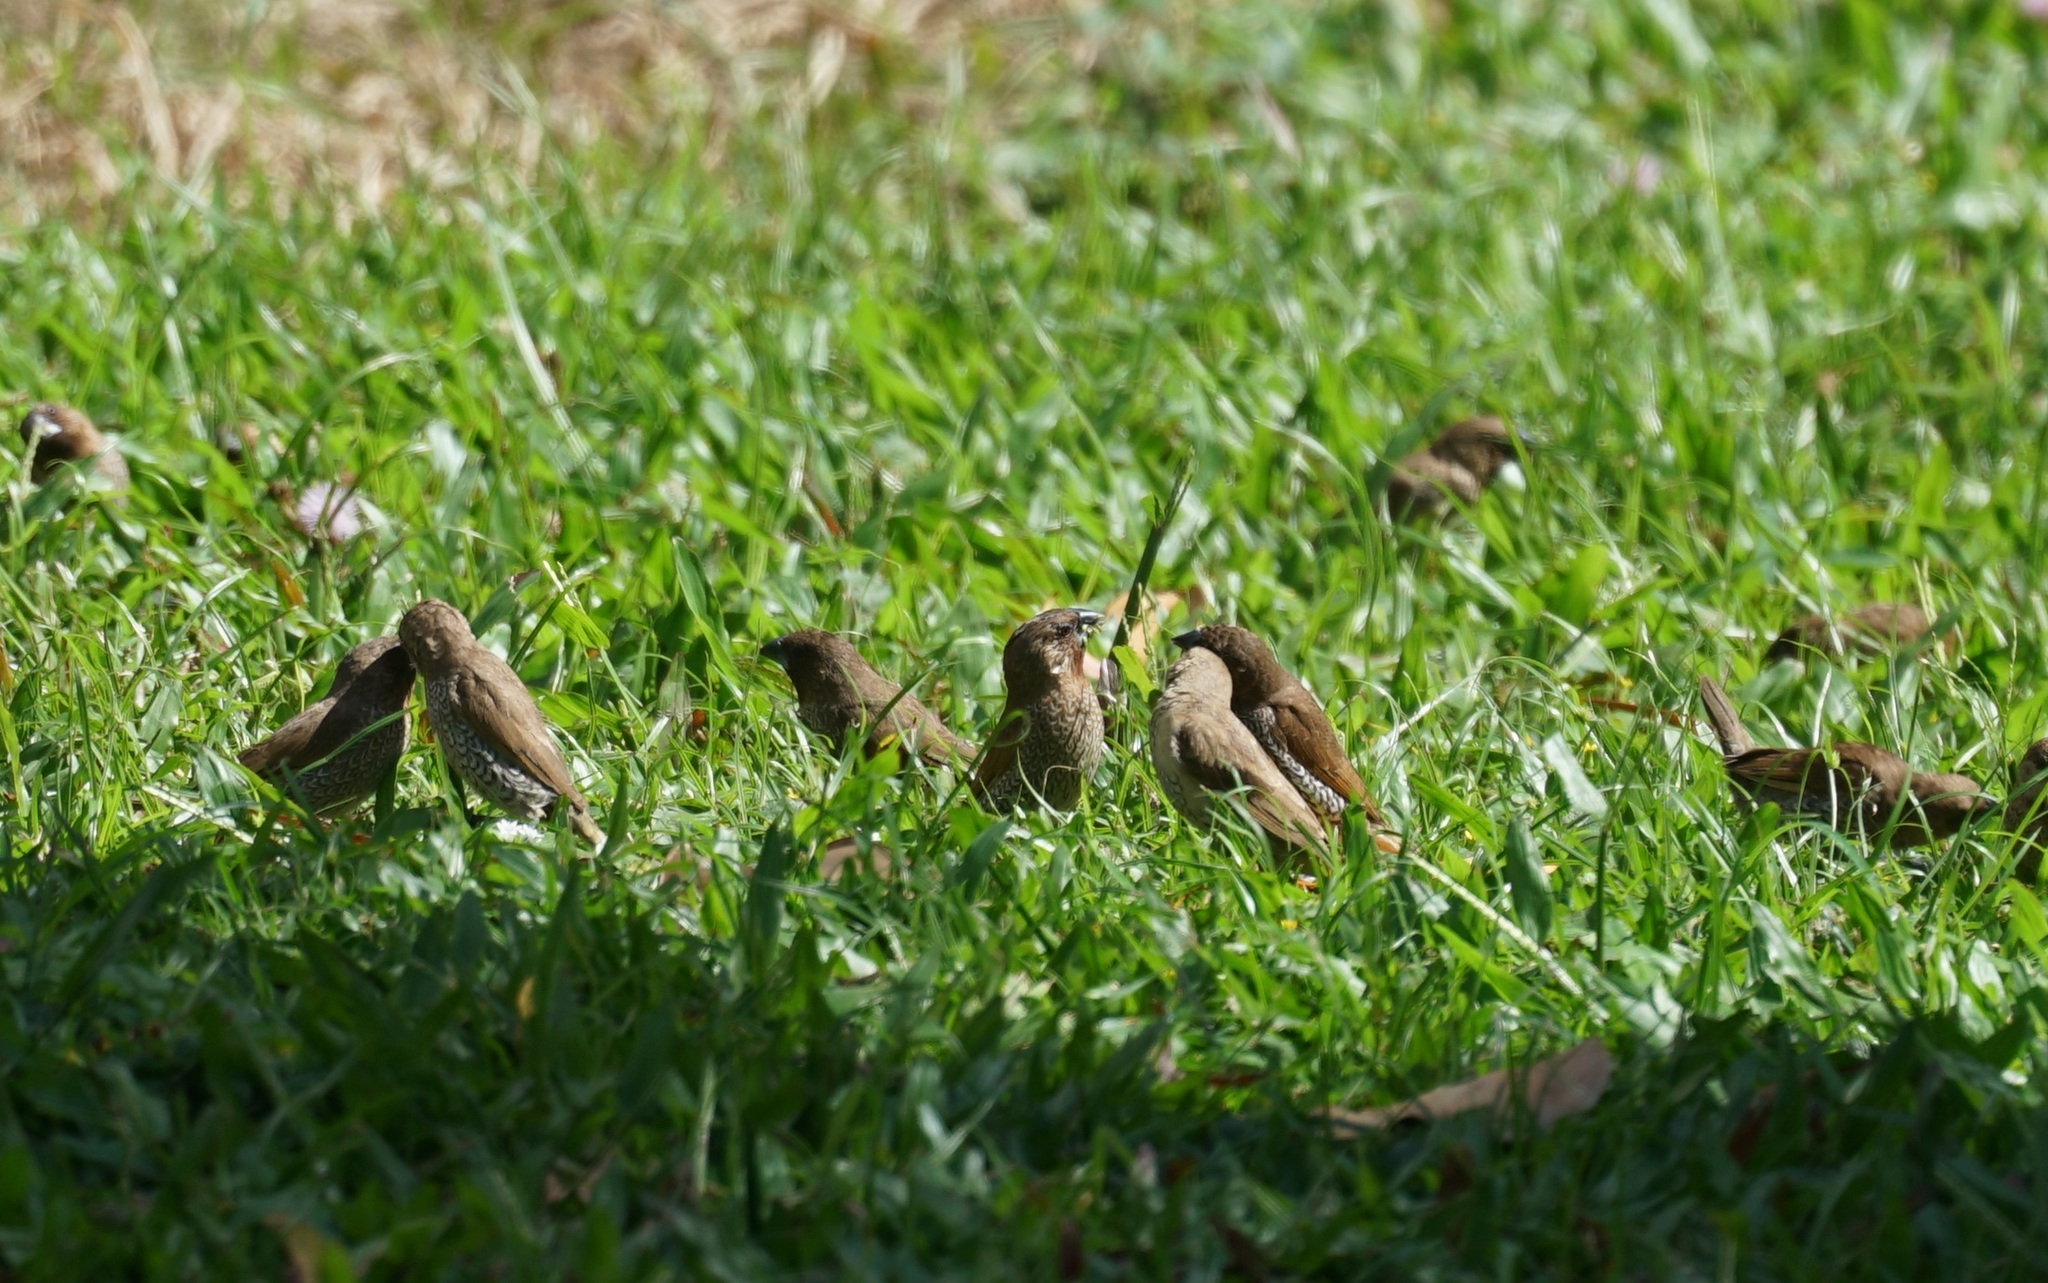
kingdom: Animalia
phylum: Chordata
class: Aves
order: Passeriformes
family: Estrildidae
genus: Lonchura
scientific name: Lonchura punctulata
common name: Scaly-breasted munia
